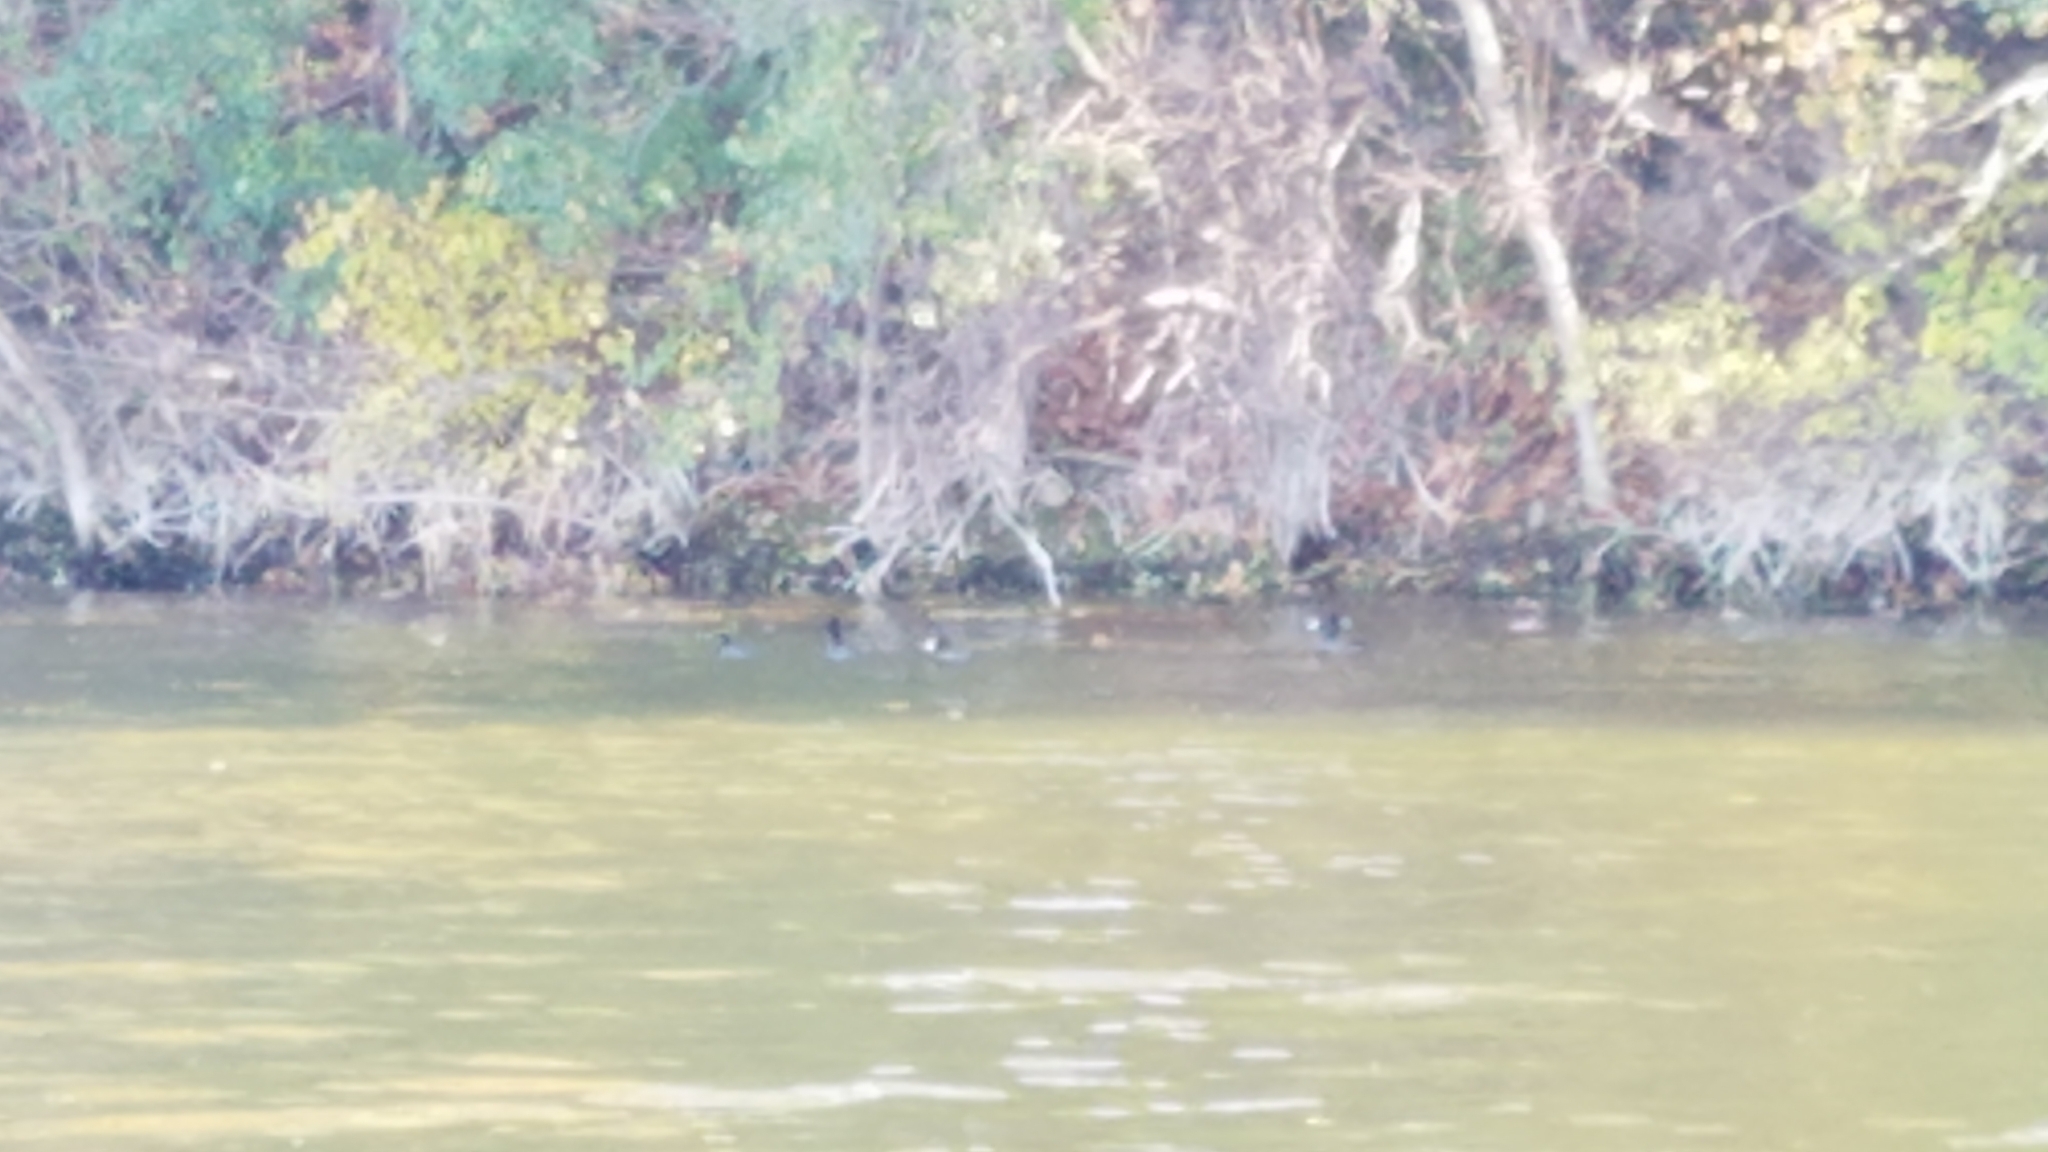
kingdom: Animalia
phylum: Chordata
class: Aves
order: Gruiformes
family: Rallidae
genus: Fulica
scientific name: Fulica americana
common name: American coot
